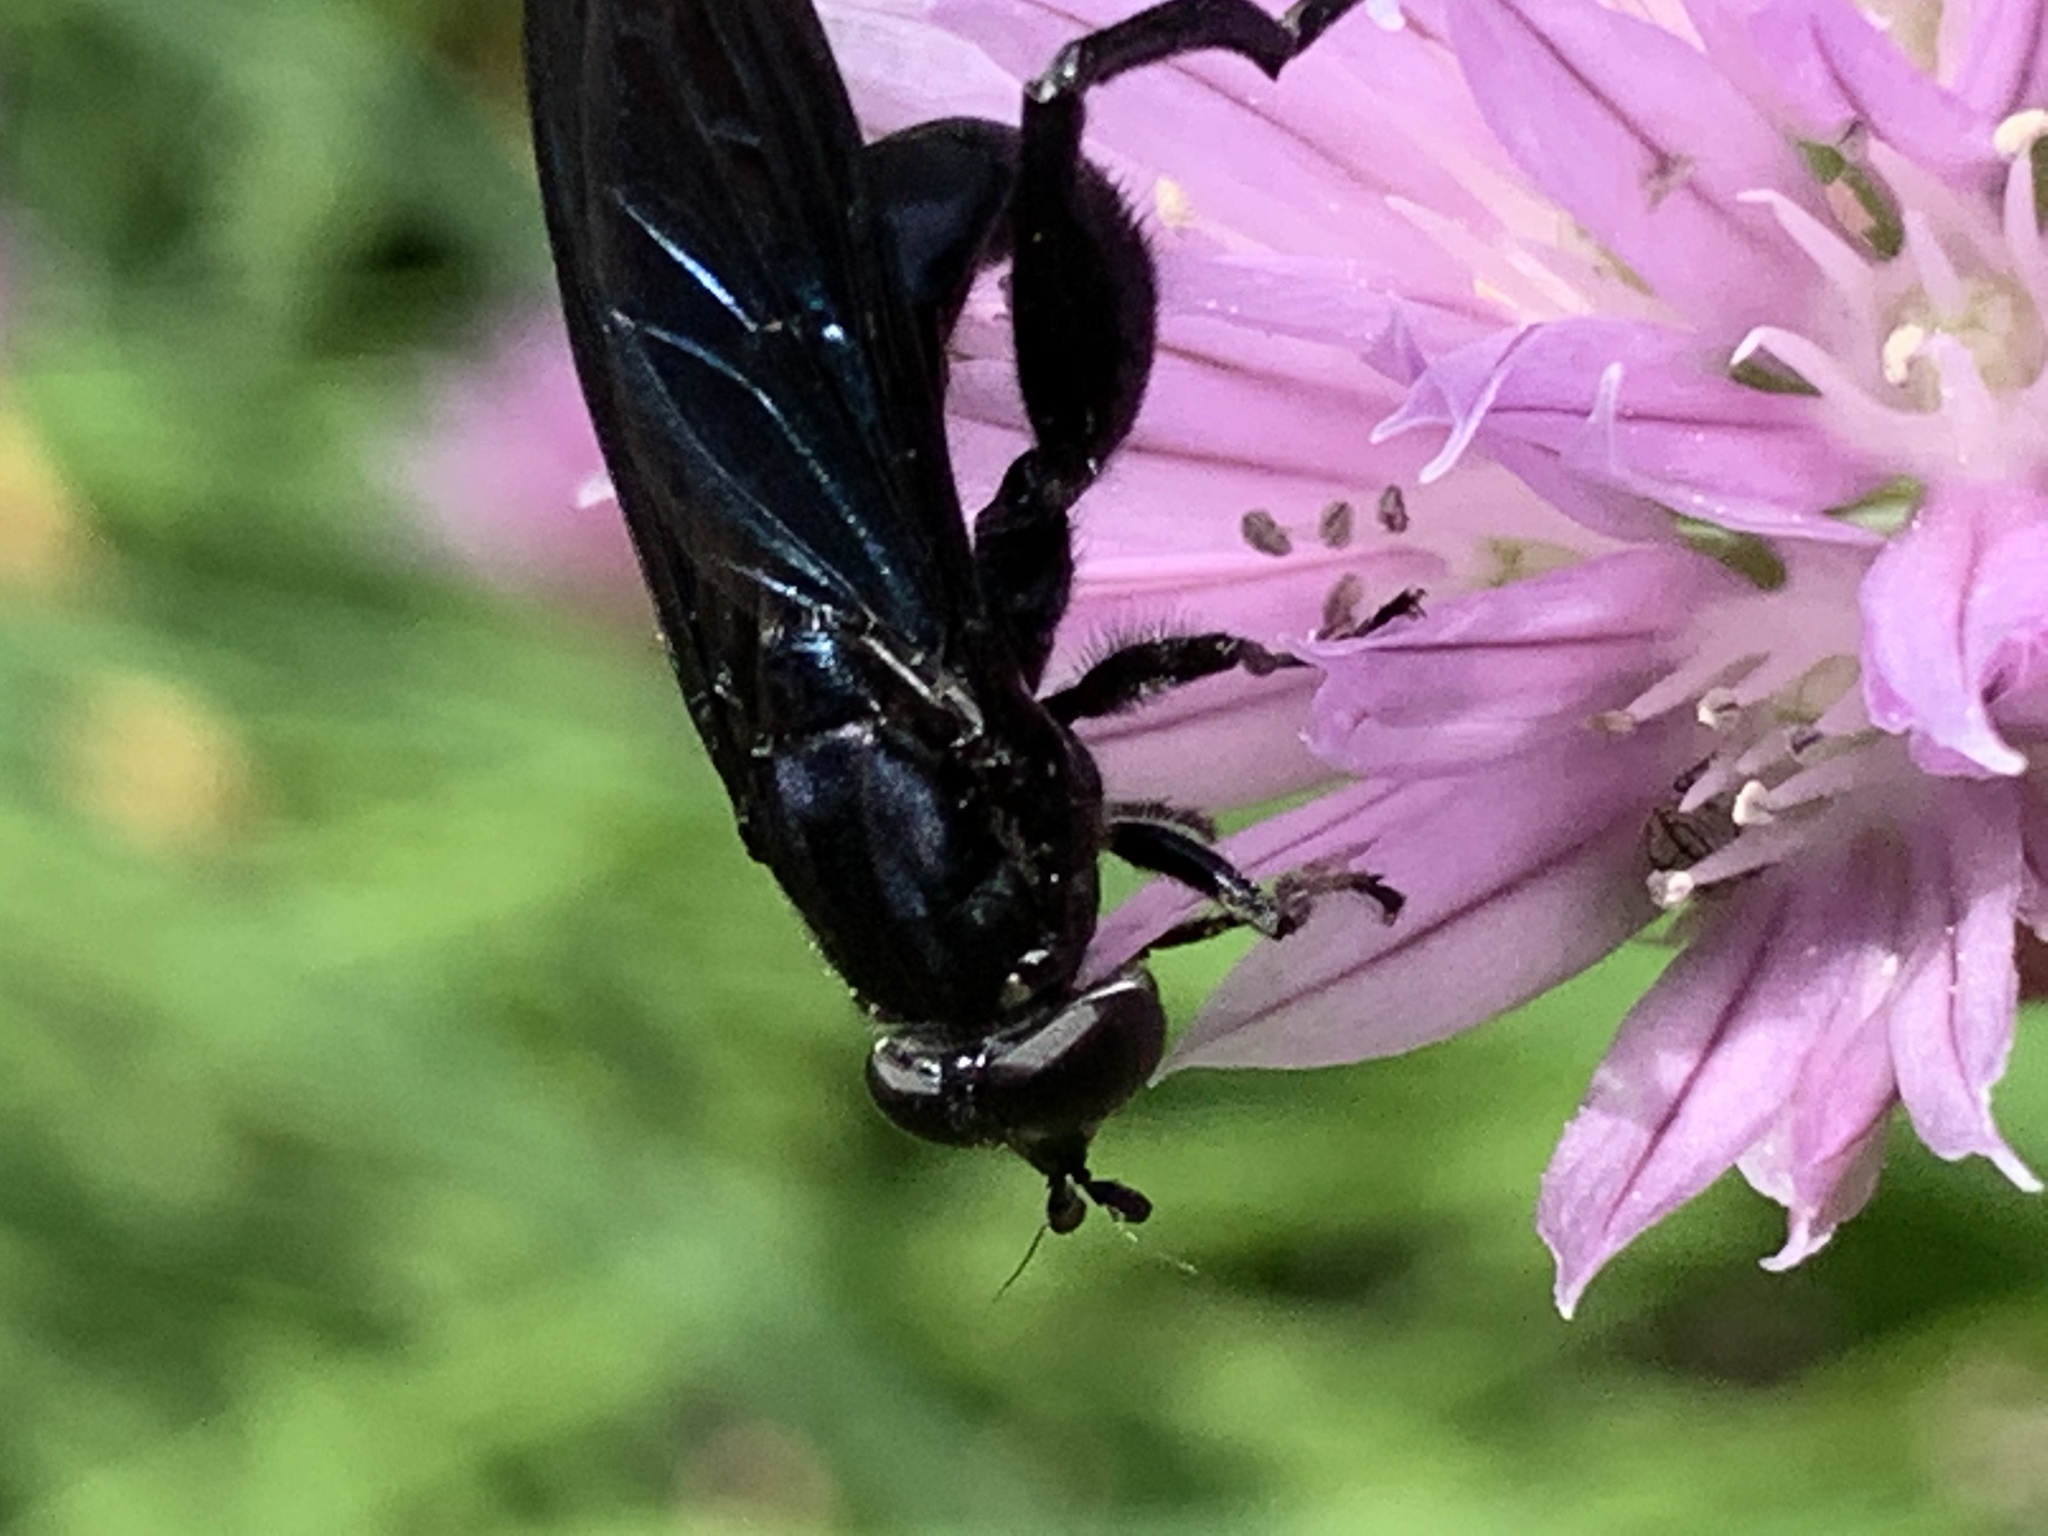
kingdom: Animalia
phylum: Arthropoda
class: Insecta
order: Diptera
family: Syrphidae
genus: Chalcosyrphus
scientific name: Chalcosyrphus chalybeus
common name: Violet leafwalker
